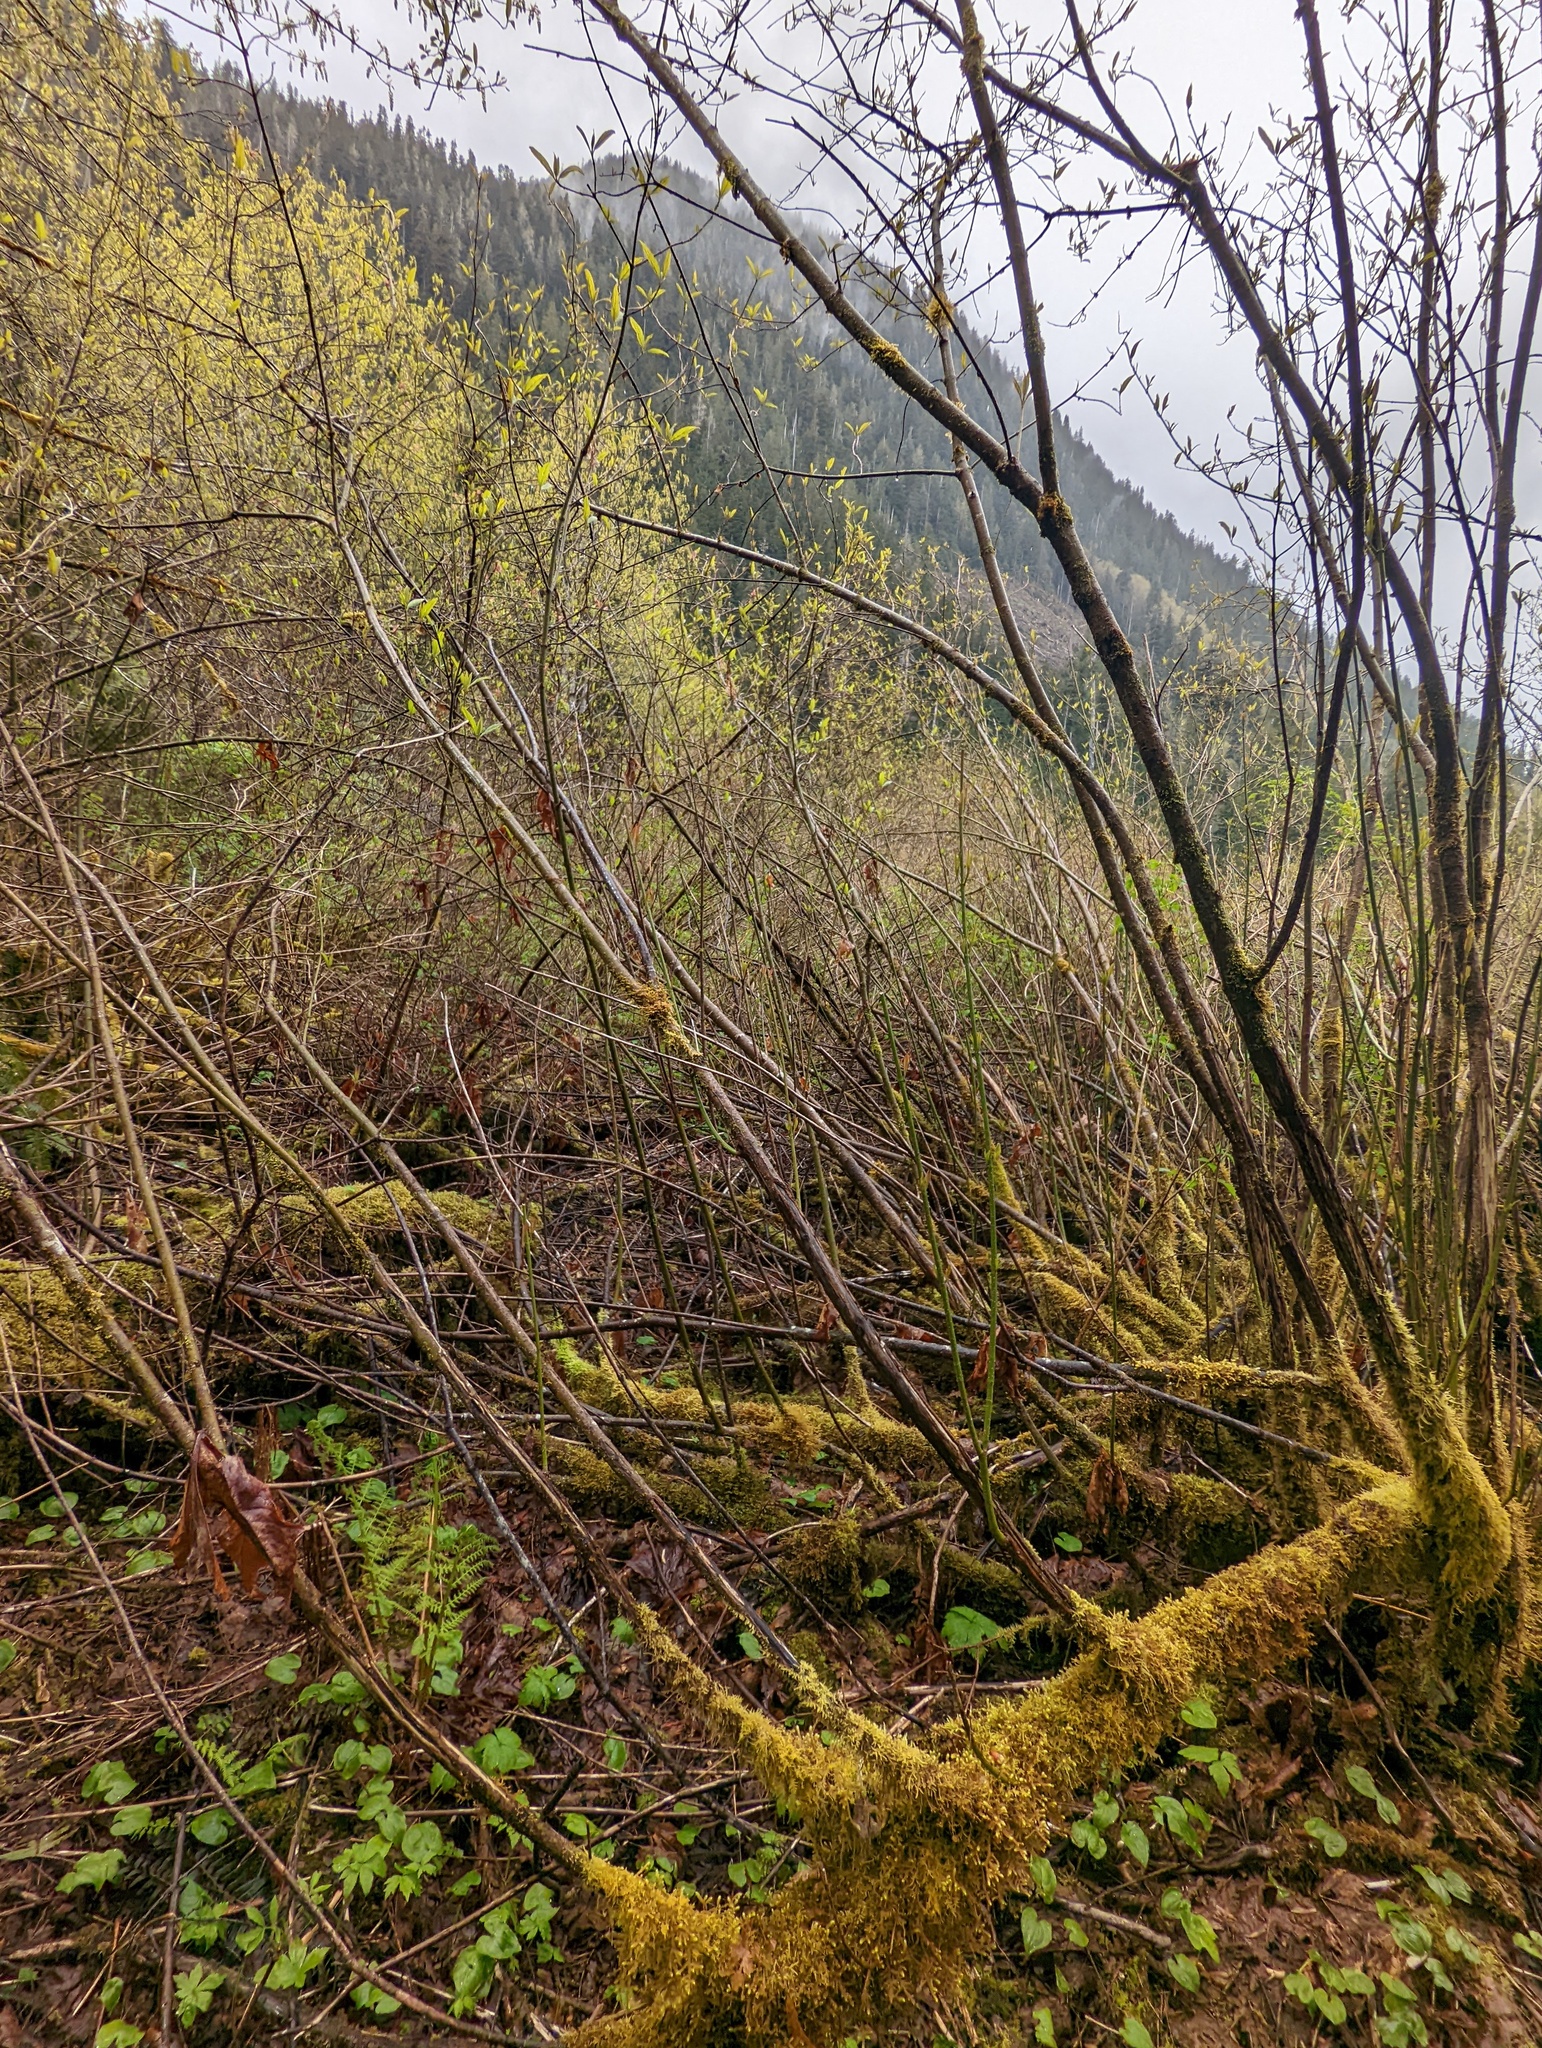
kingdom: Plantae
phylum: Tracheophyta
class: Magnoliopsida
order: Cornales
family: Cornaceae
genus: Cornus
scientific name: Cornus sericea
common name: Red-osier dogwood
